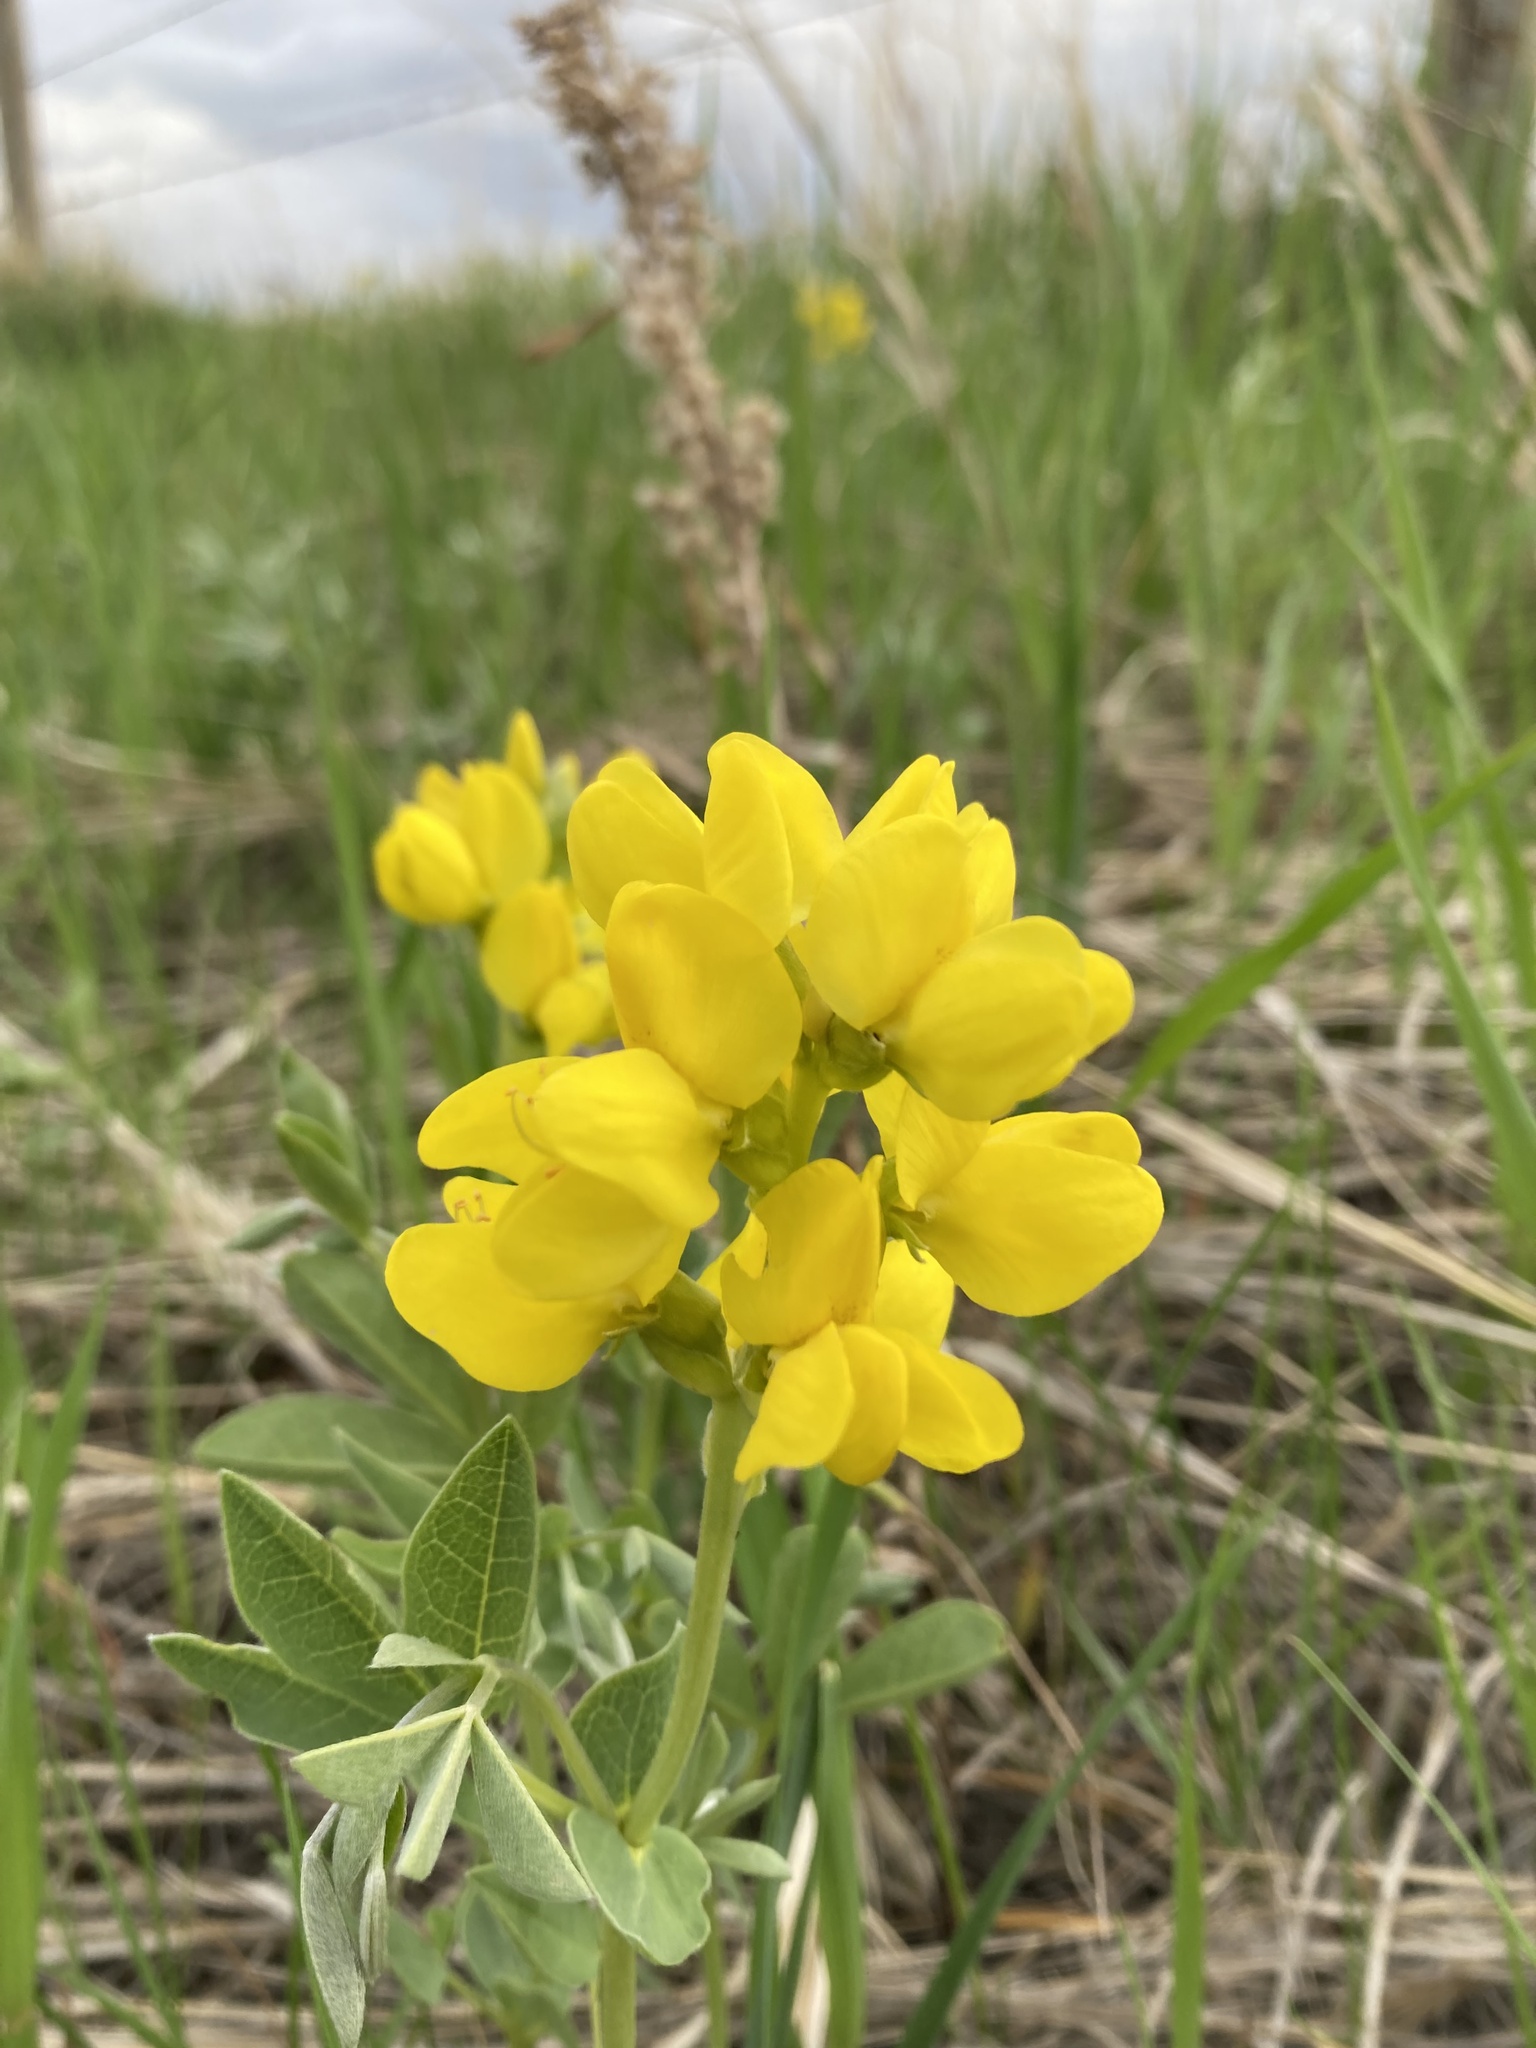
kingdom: Plantae
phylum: Tracheophyta
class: Magnoliopsida
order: Fabales
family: Fabaceae
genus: Thermopsis
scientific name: Thermopsis rhombifolia
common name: Circle-pod-pea
